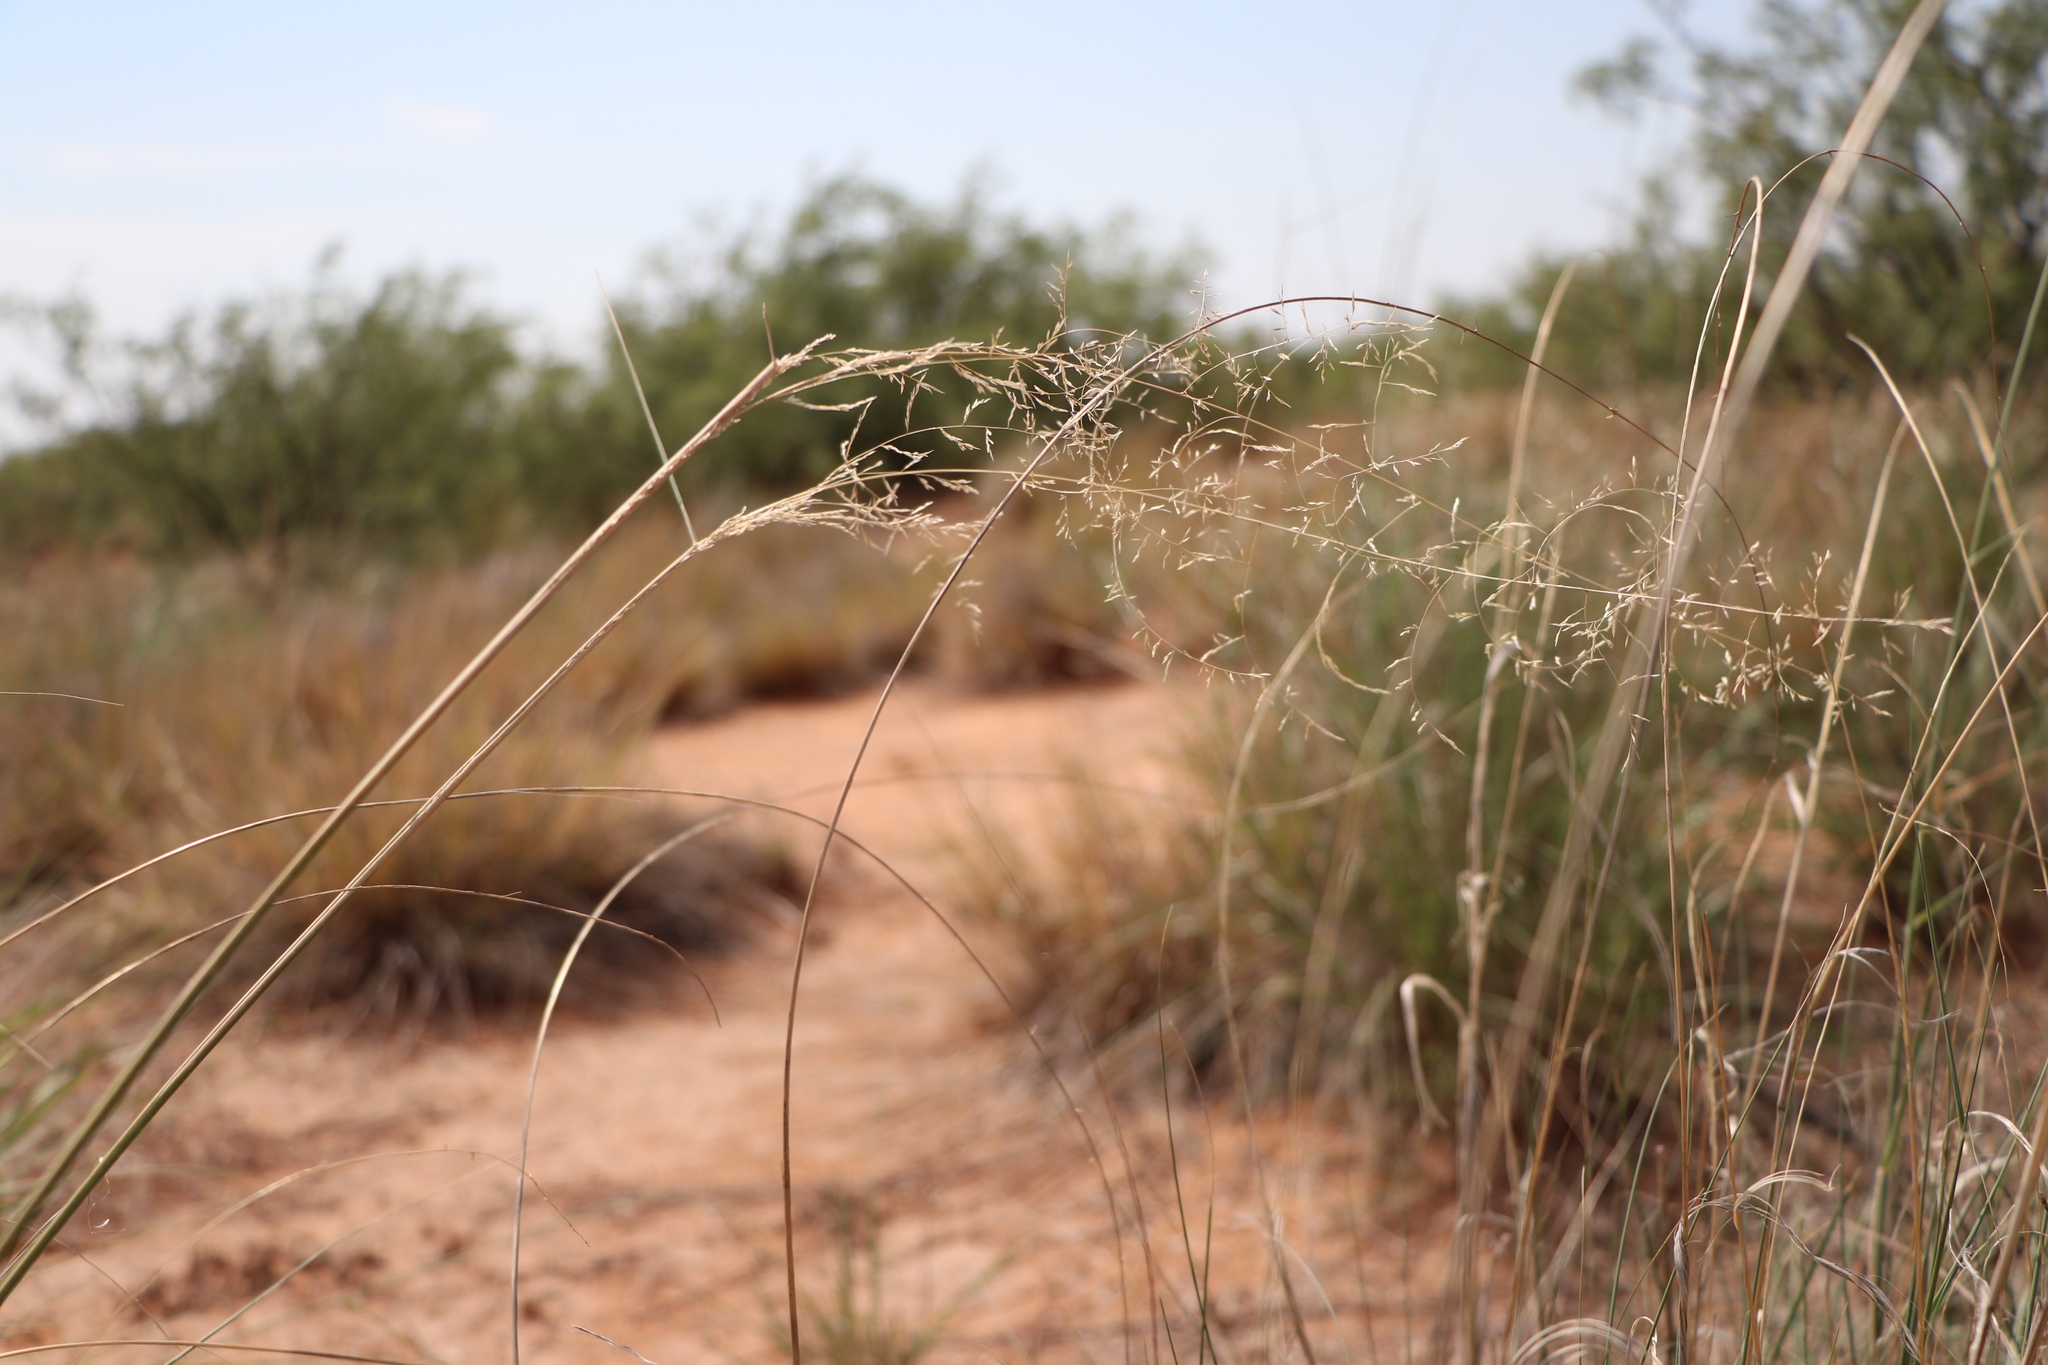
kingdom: Plantae
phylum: Tracheophyta
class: Liliopsida
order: Poales
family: Poaceae
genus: Sporobolus
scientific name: Sporobolus flexuosus
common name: Mesa dropseed
